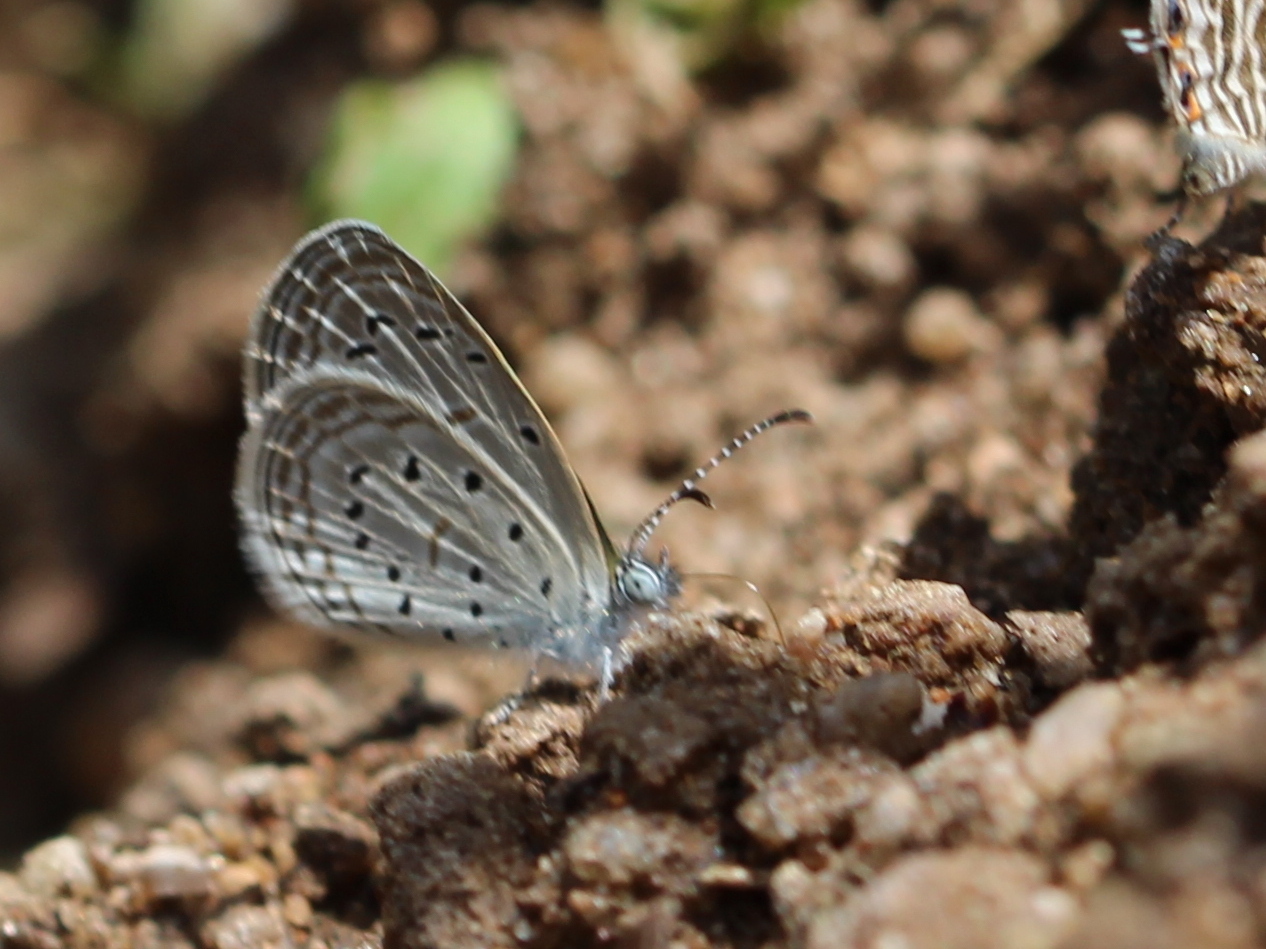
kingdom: Animalia
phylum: Arthropoda
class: Insecta
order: Lepidoptera
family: Lycaenidae
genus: Zizula
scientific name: Zizula hylax
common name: Gaika blue
